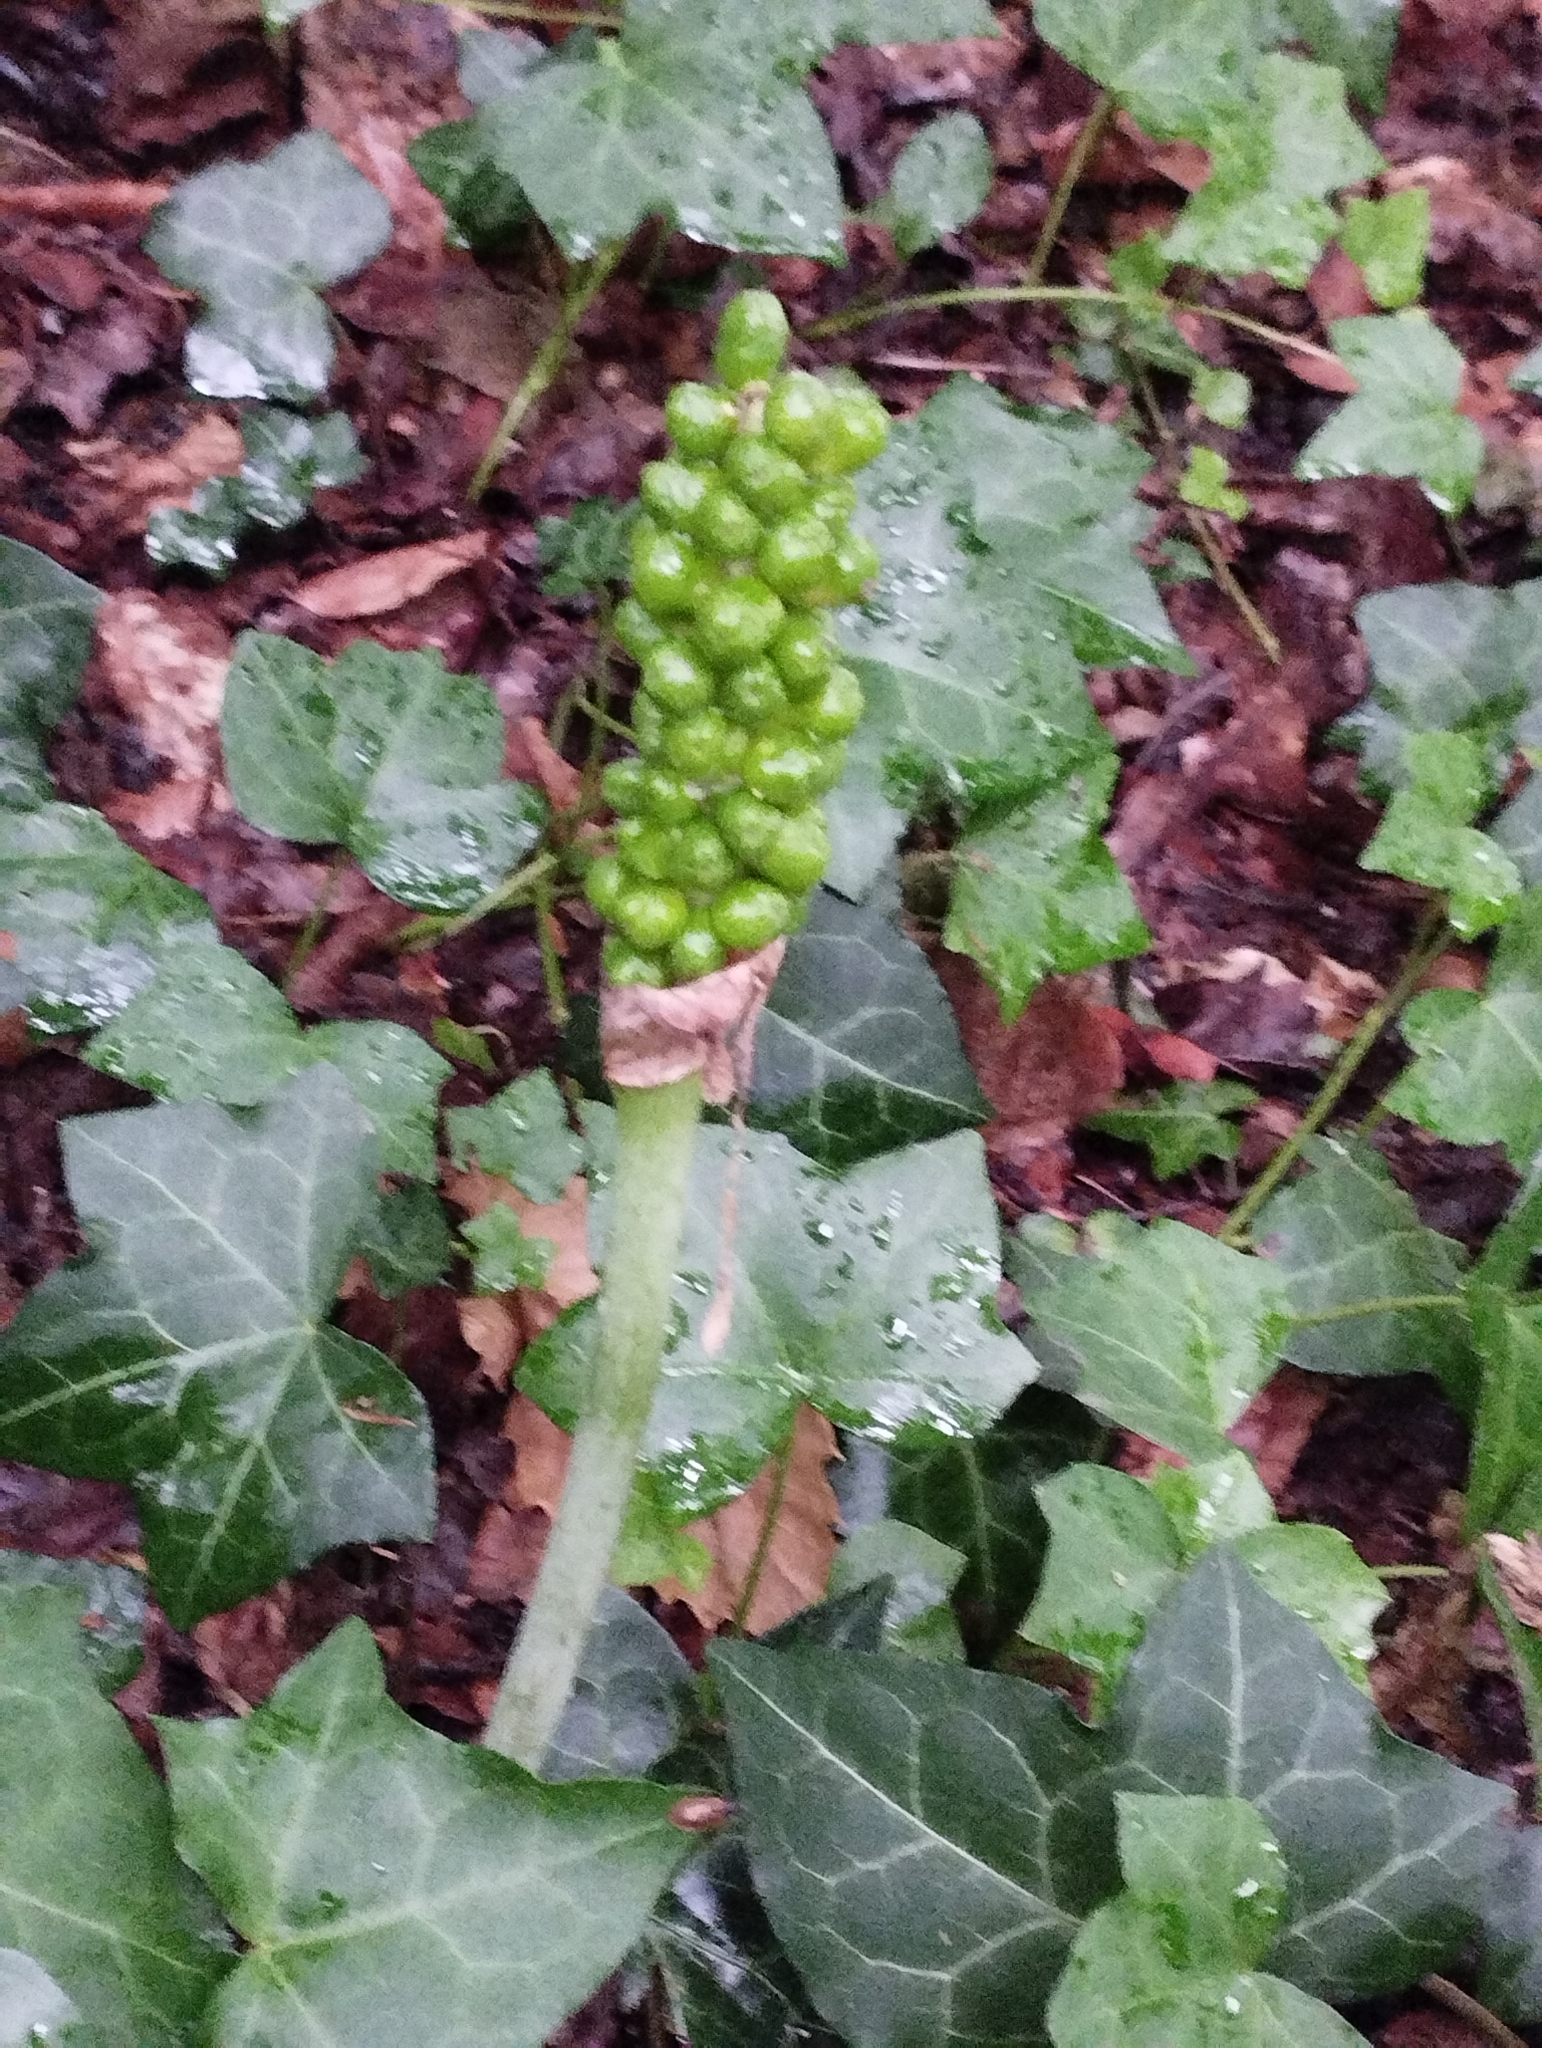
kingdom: Plantae
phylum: Tracheophyta
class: Liliopsida
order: Alismatales
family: Araceae
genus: Arum
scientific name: Arum maculatum
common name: Lords-and-ladies
